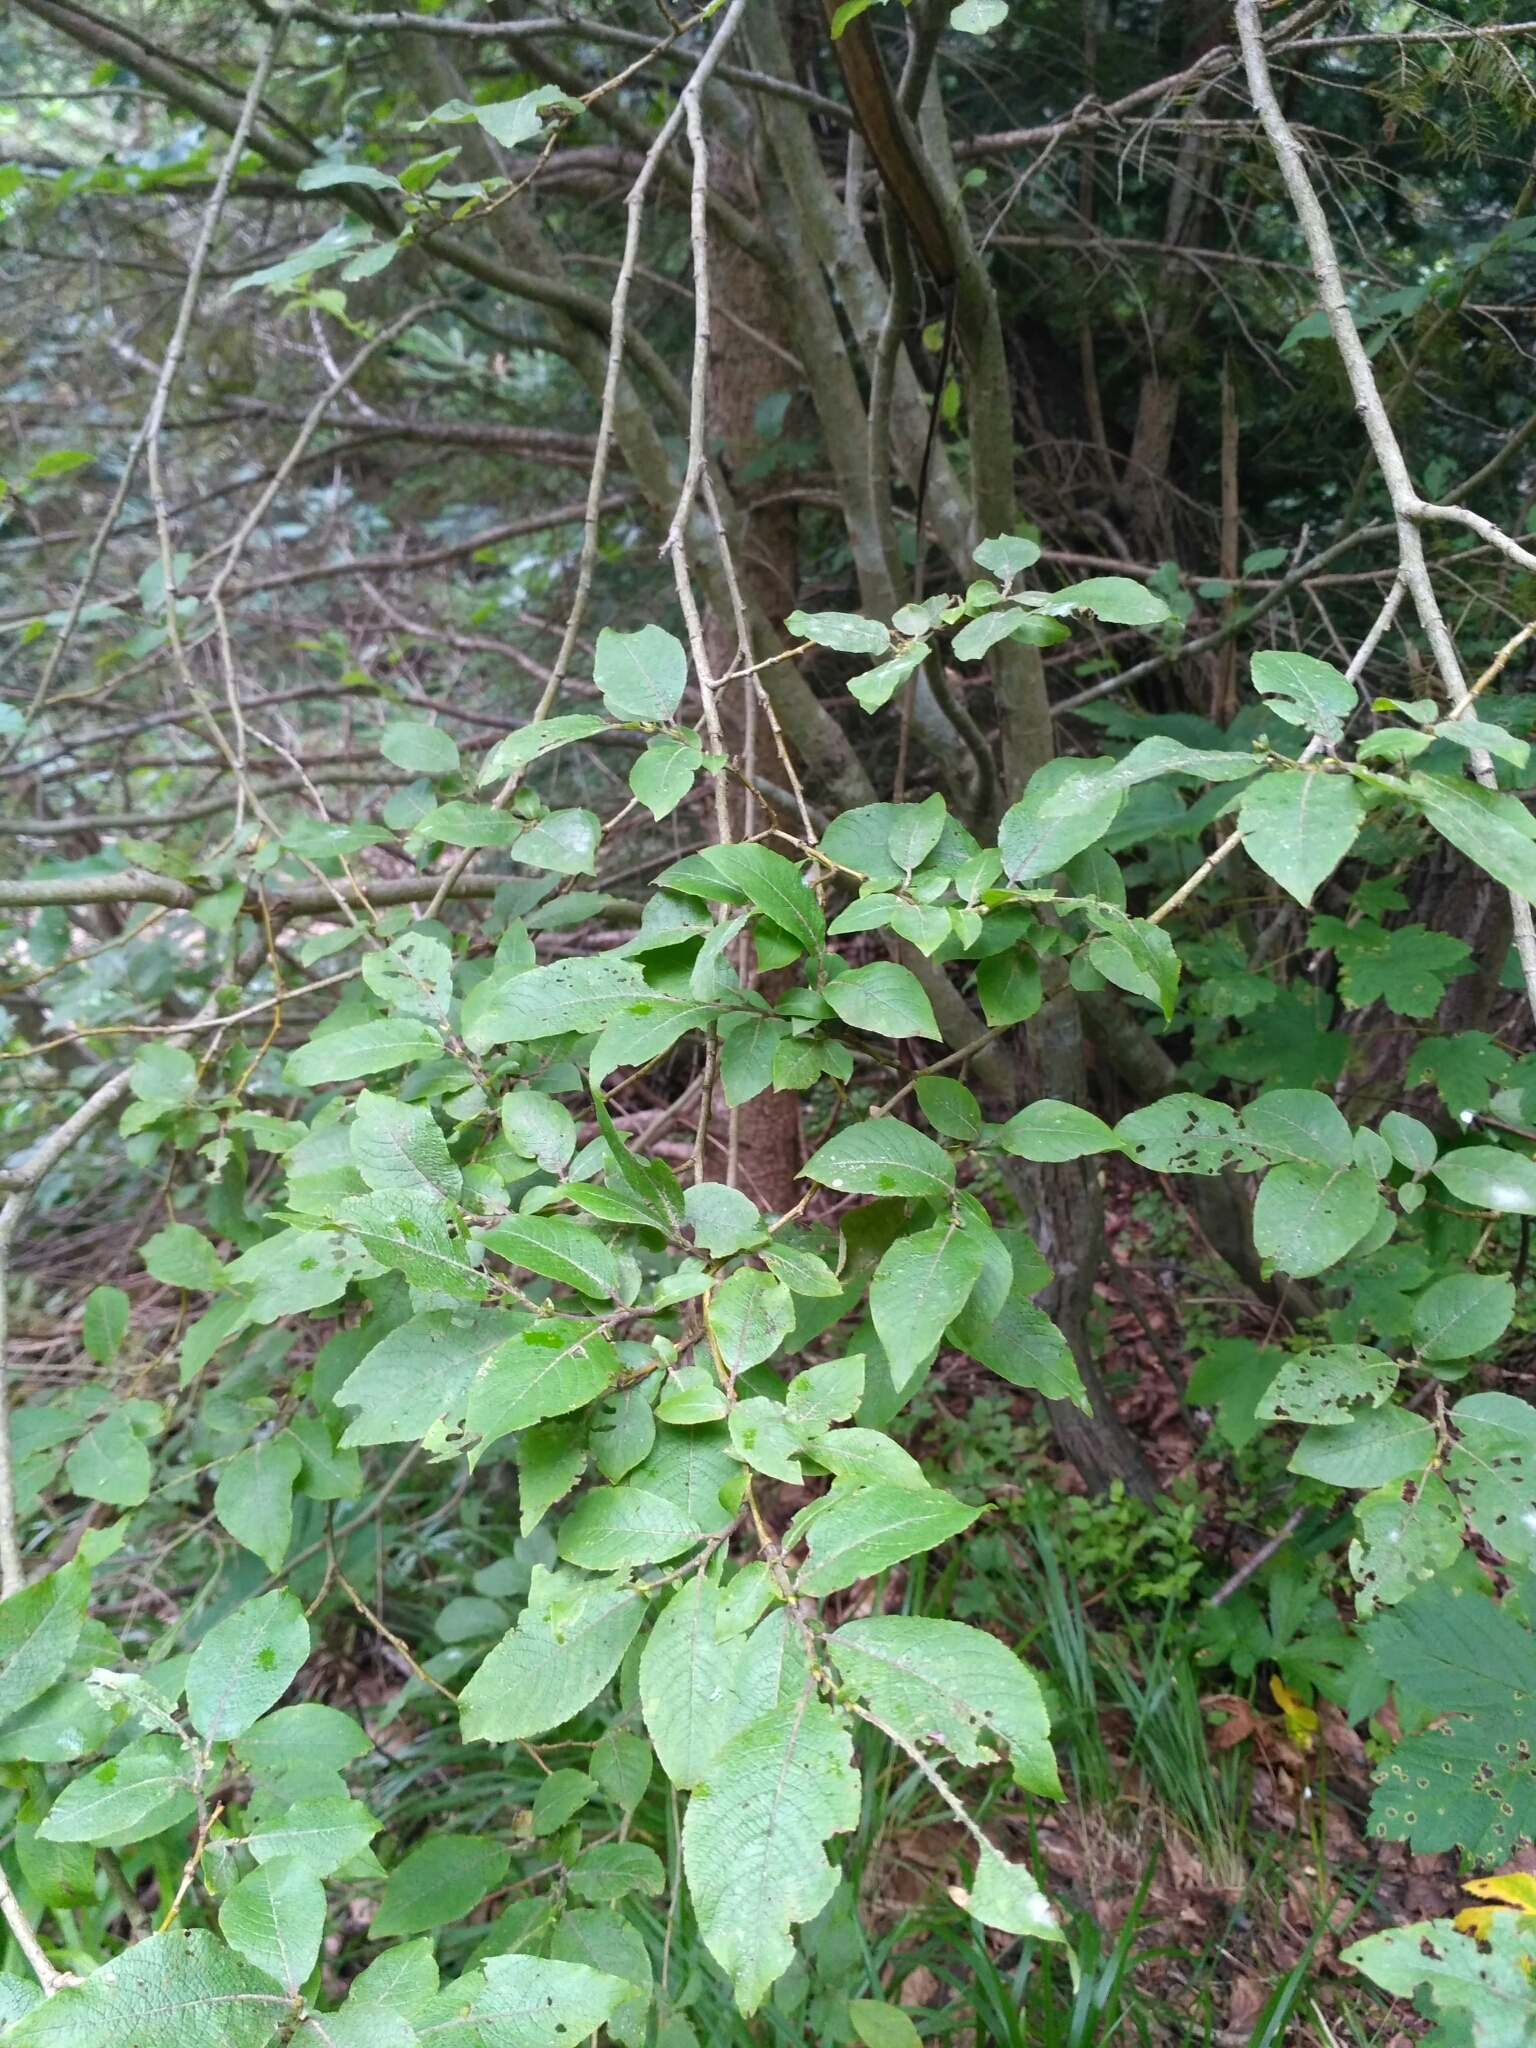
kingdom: Plantae
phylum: Tracheophyta
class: Magnoliopsida
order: Malpighiales
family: Salicaceae
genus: Salix
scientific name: Salix caprea
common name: Goat willow
